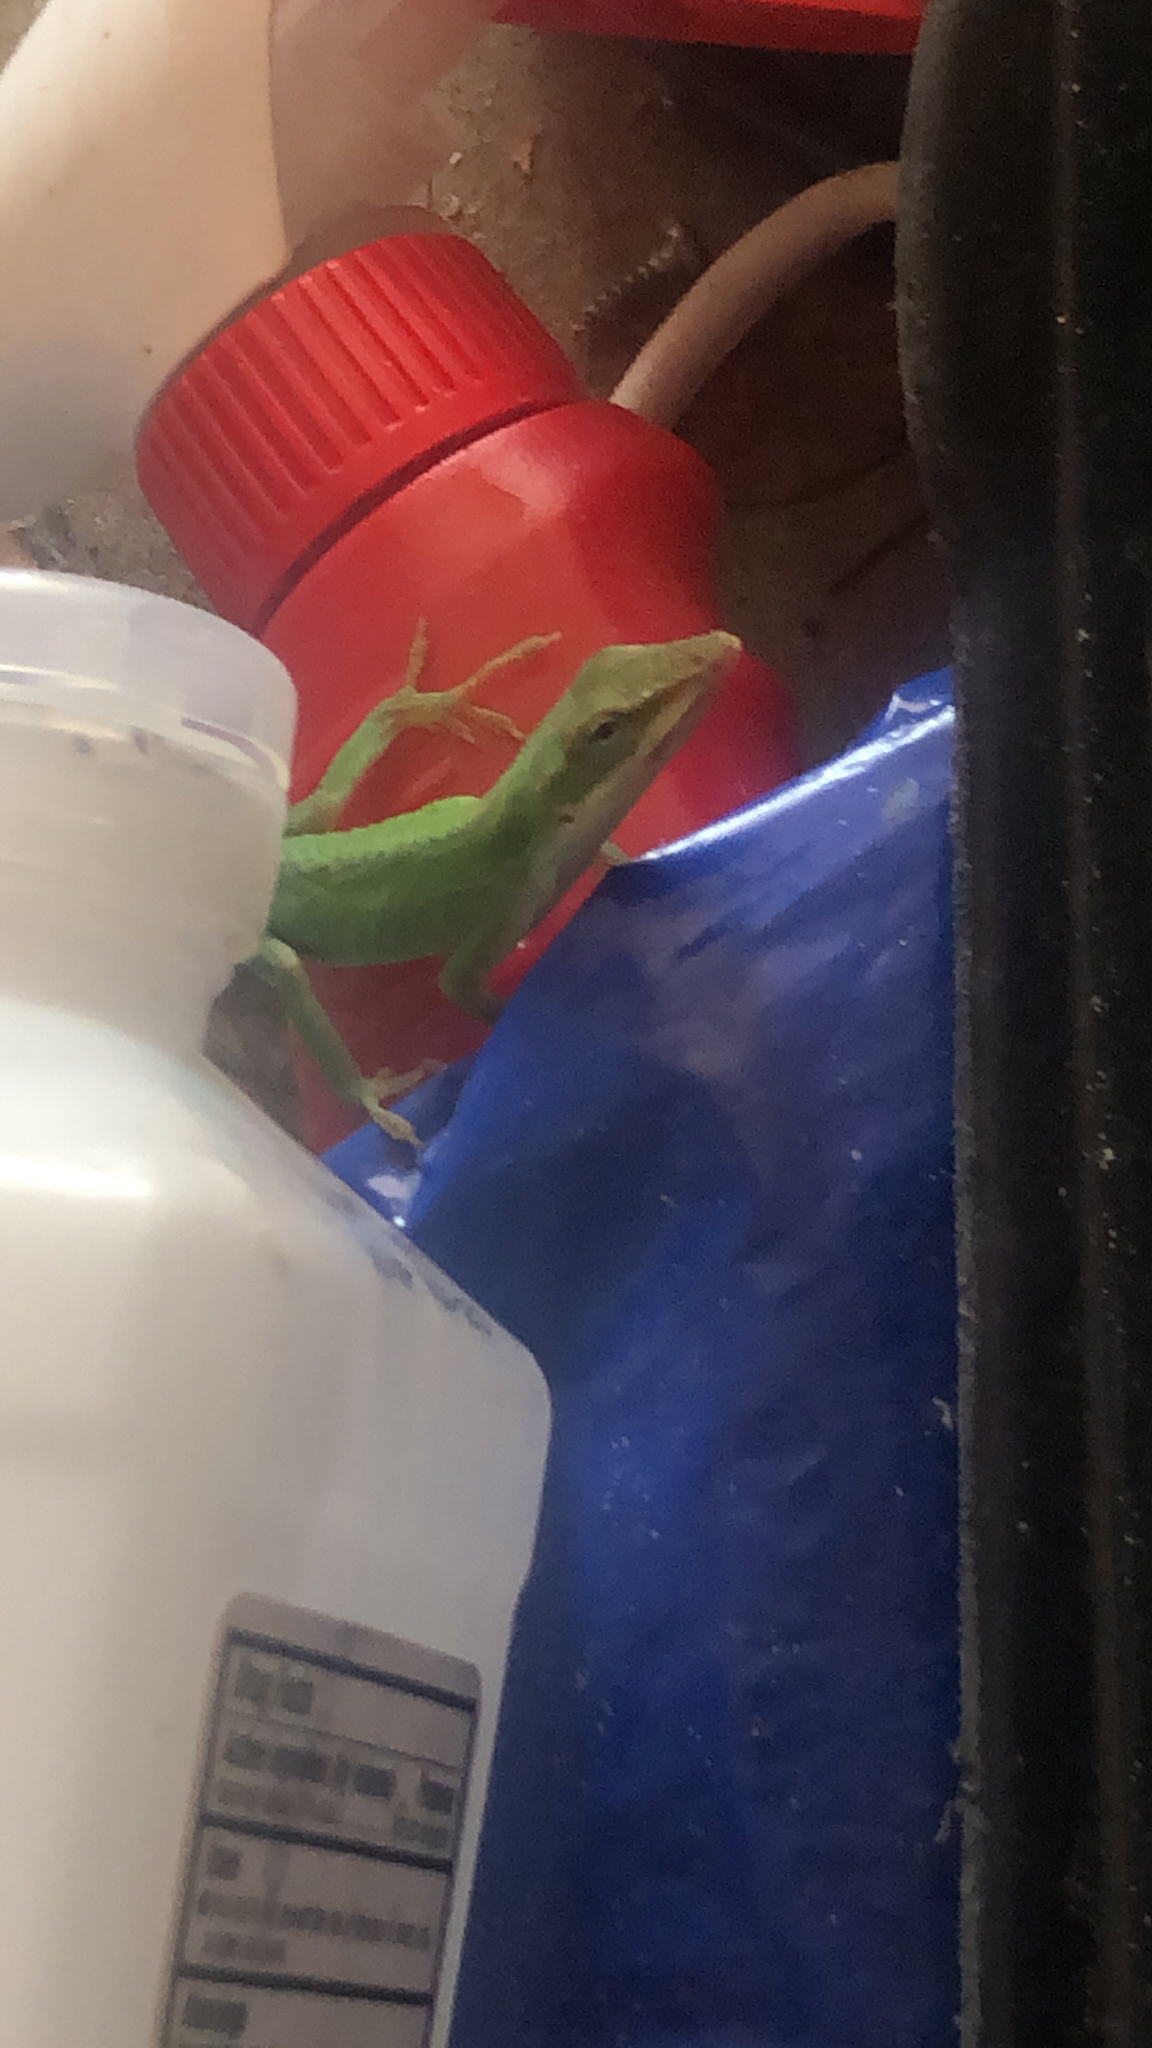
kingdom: Animalia
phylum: Chordata
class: Squamata
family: Dactyloidae
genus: Anolis
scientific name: Anolis carolinensis
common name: Green anole
